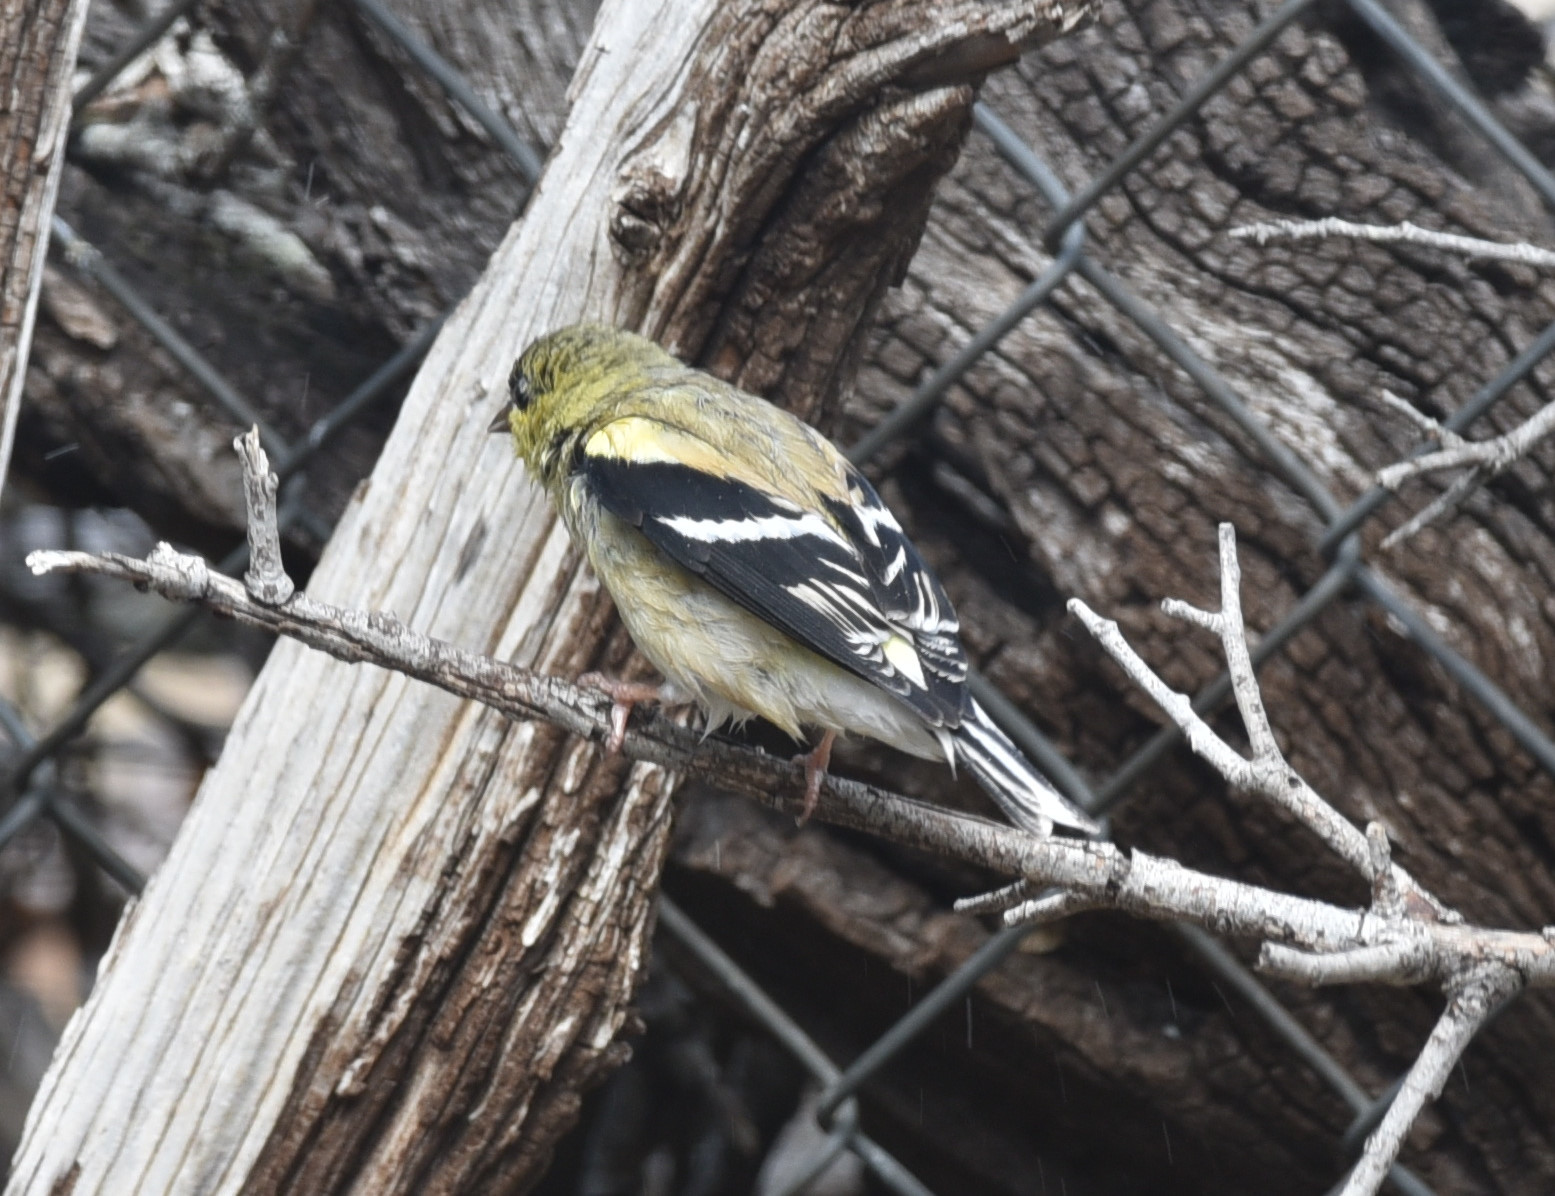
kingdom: Animalia
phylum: Chordata
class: Aves
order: Passeriformes
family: Fringillidae
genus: Spinus
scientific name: Spinus tristis
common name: American goldfinch
